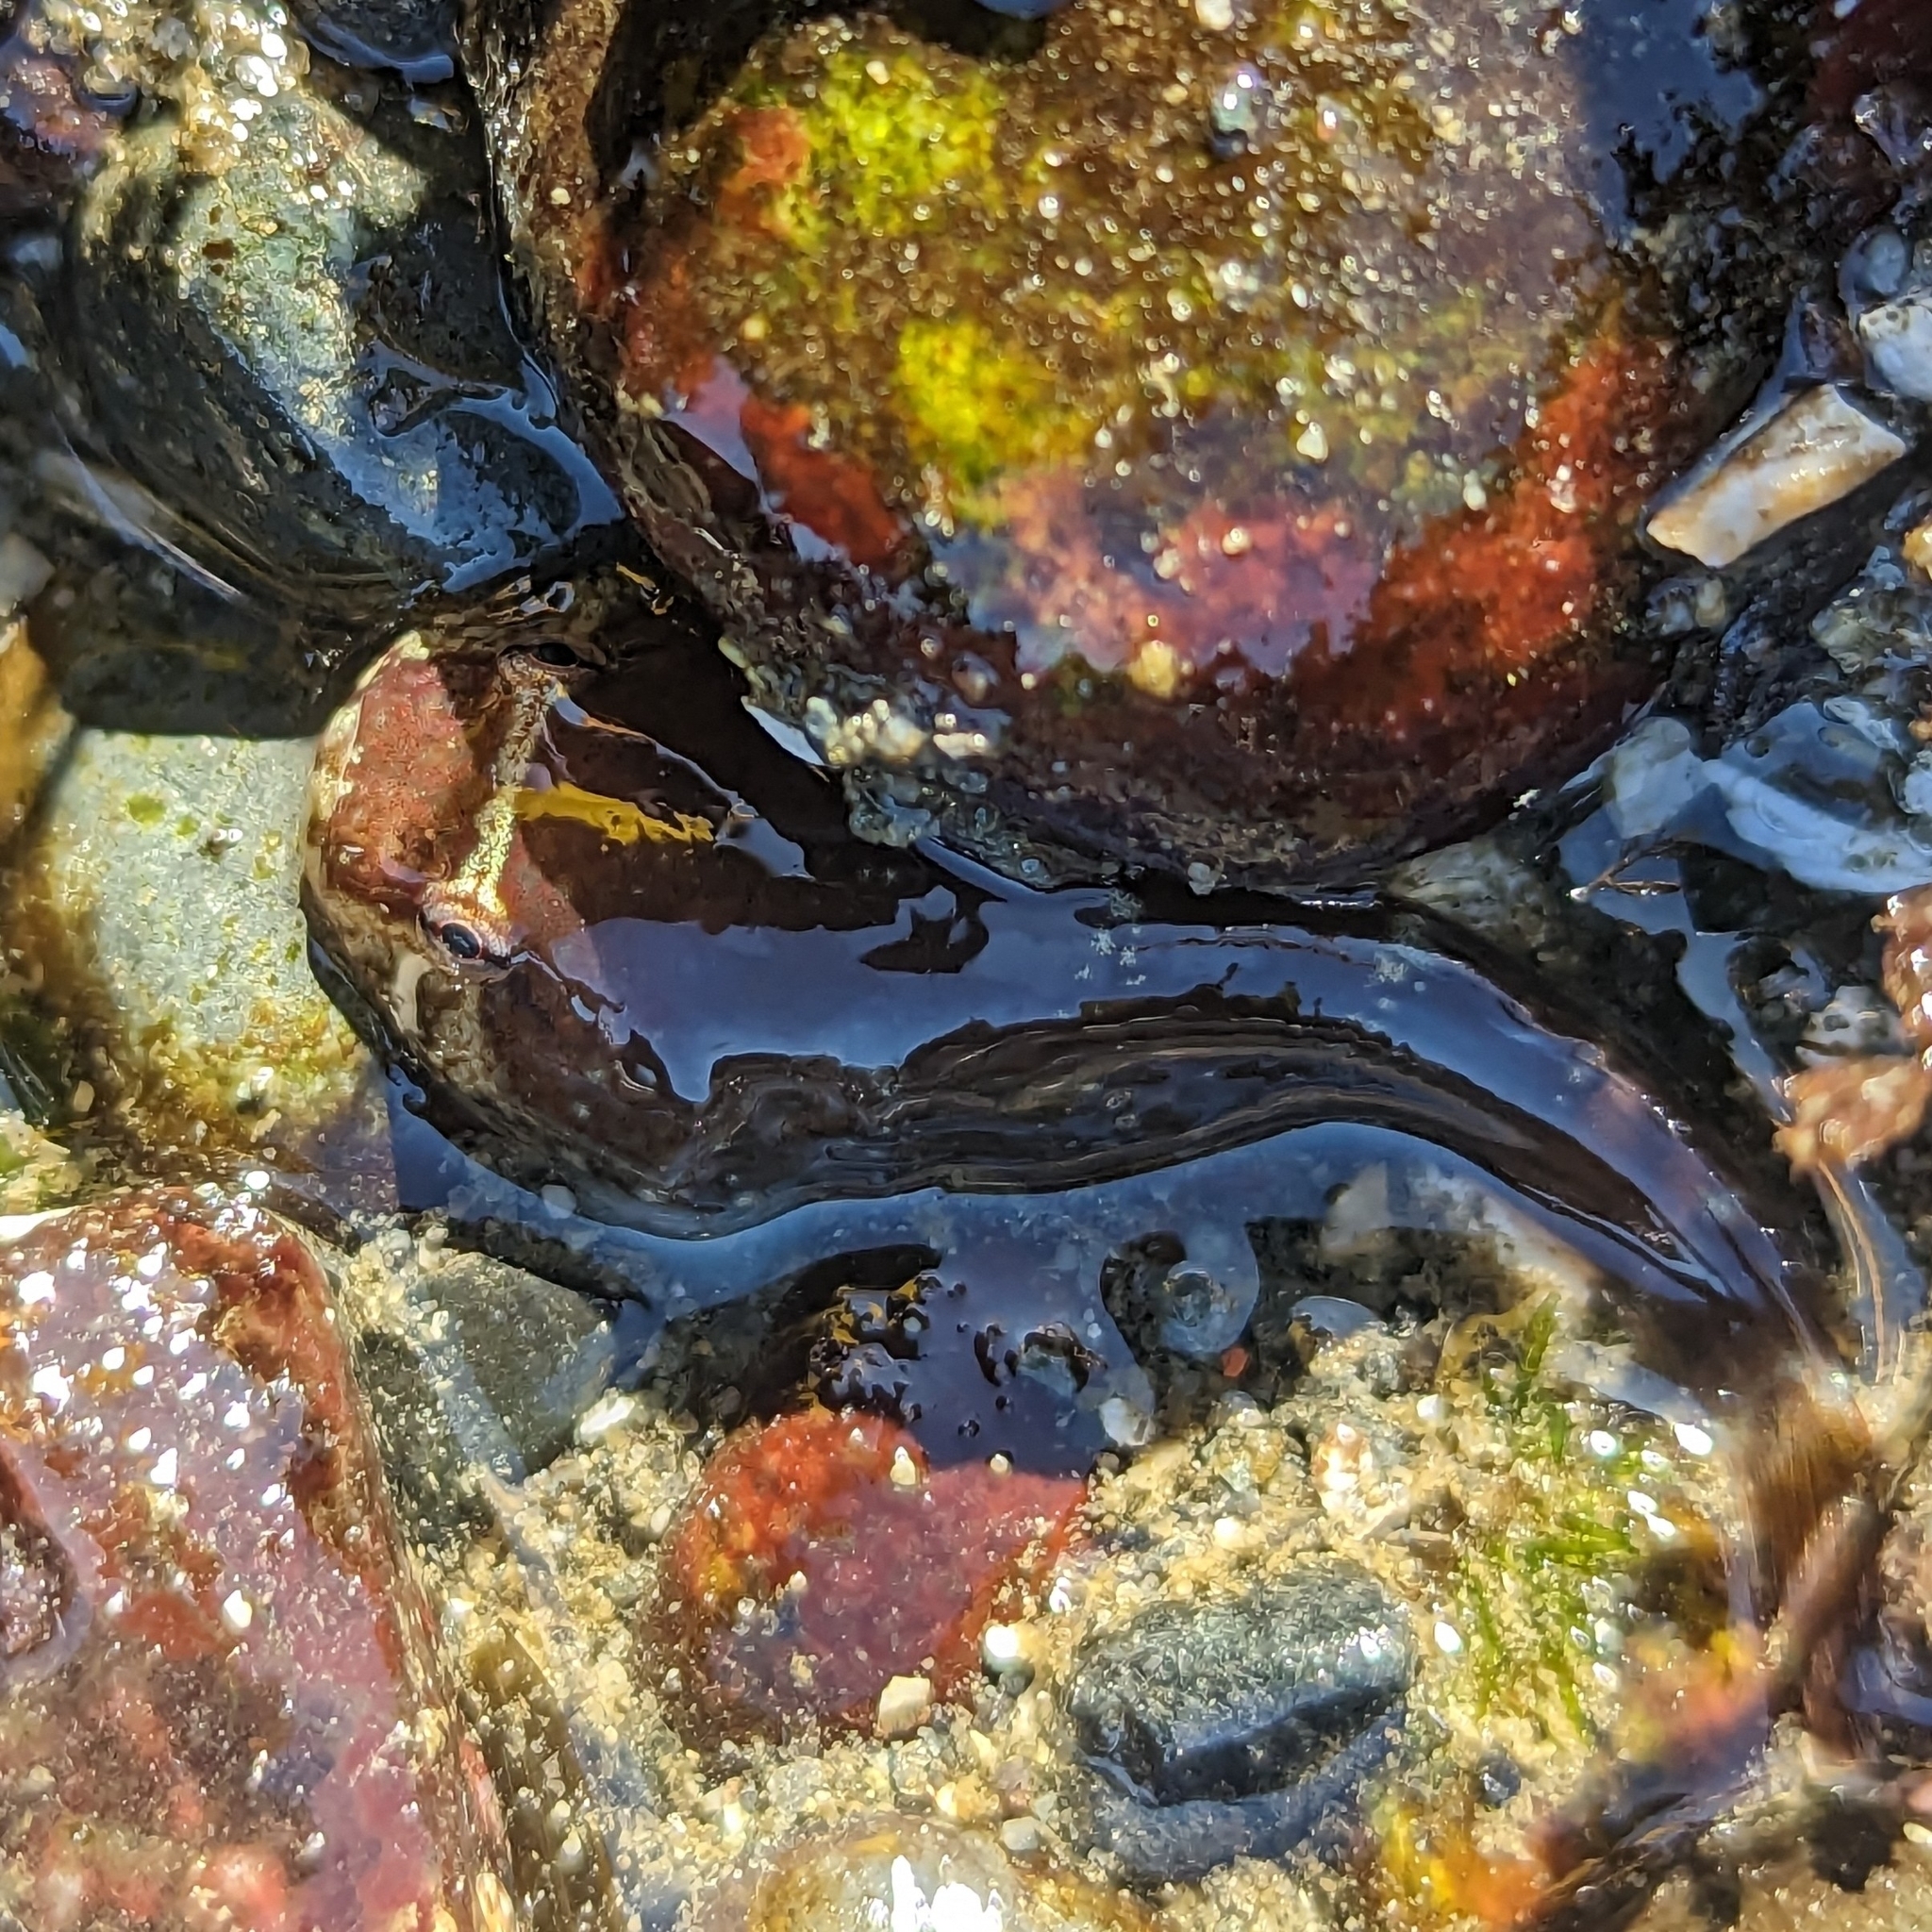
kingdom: Animalia
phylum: Chordata
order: Gobiesociformes
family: Gobiesocidae
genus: Gobiesox
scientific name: Gobiesox maeandricus
